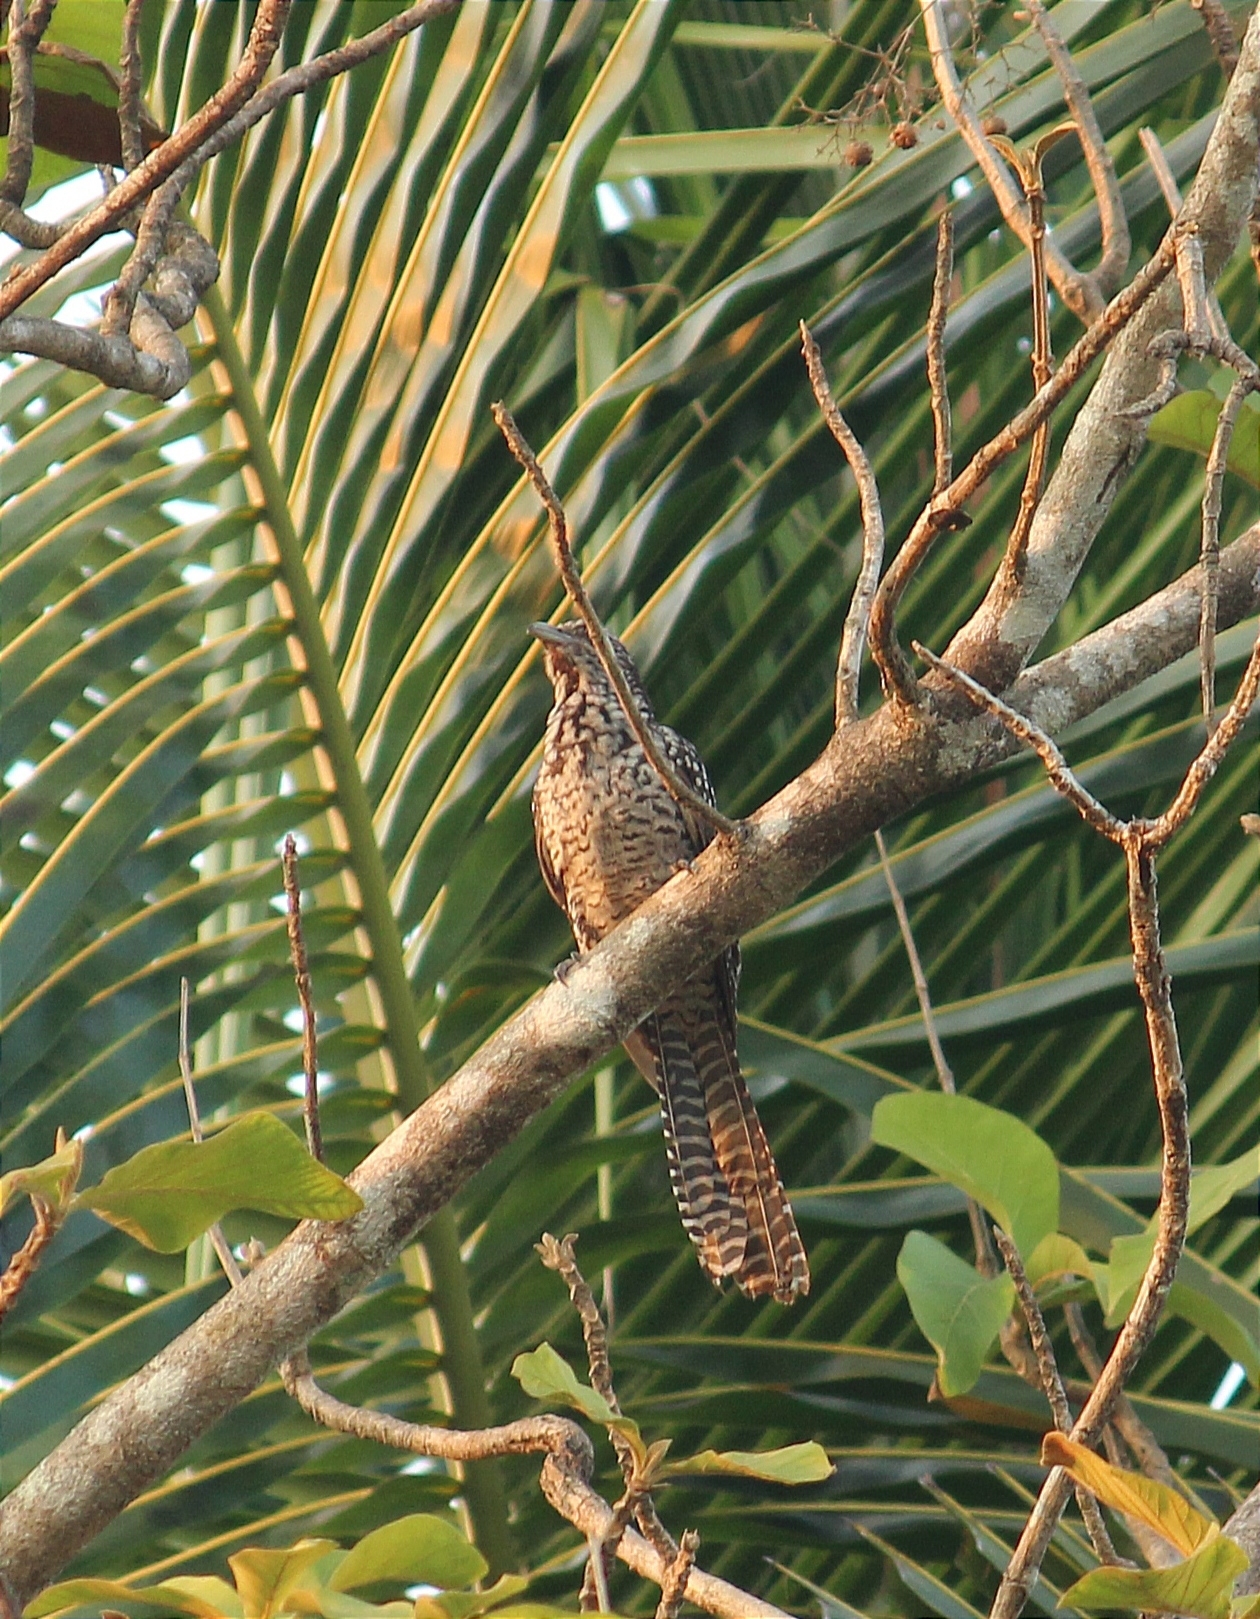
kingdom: Animalia
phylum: Chordata
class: Aves
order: Cuculiformes
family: Cuculidae
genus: Eudynamys
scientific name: Eudynamys scolopaceus
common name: Asian koel
